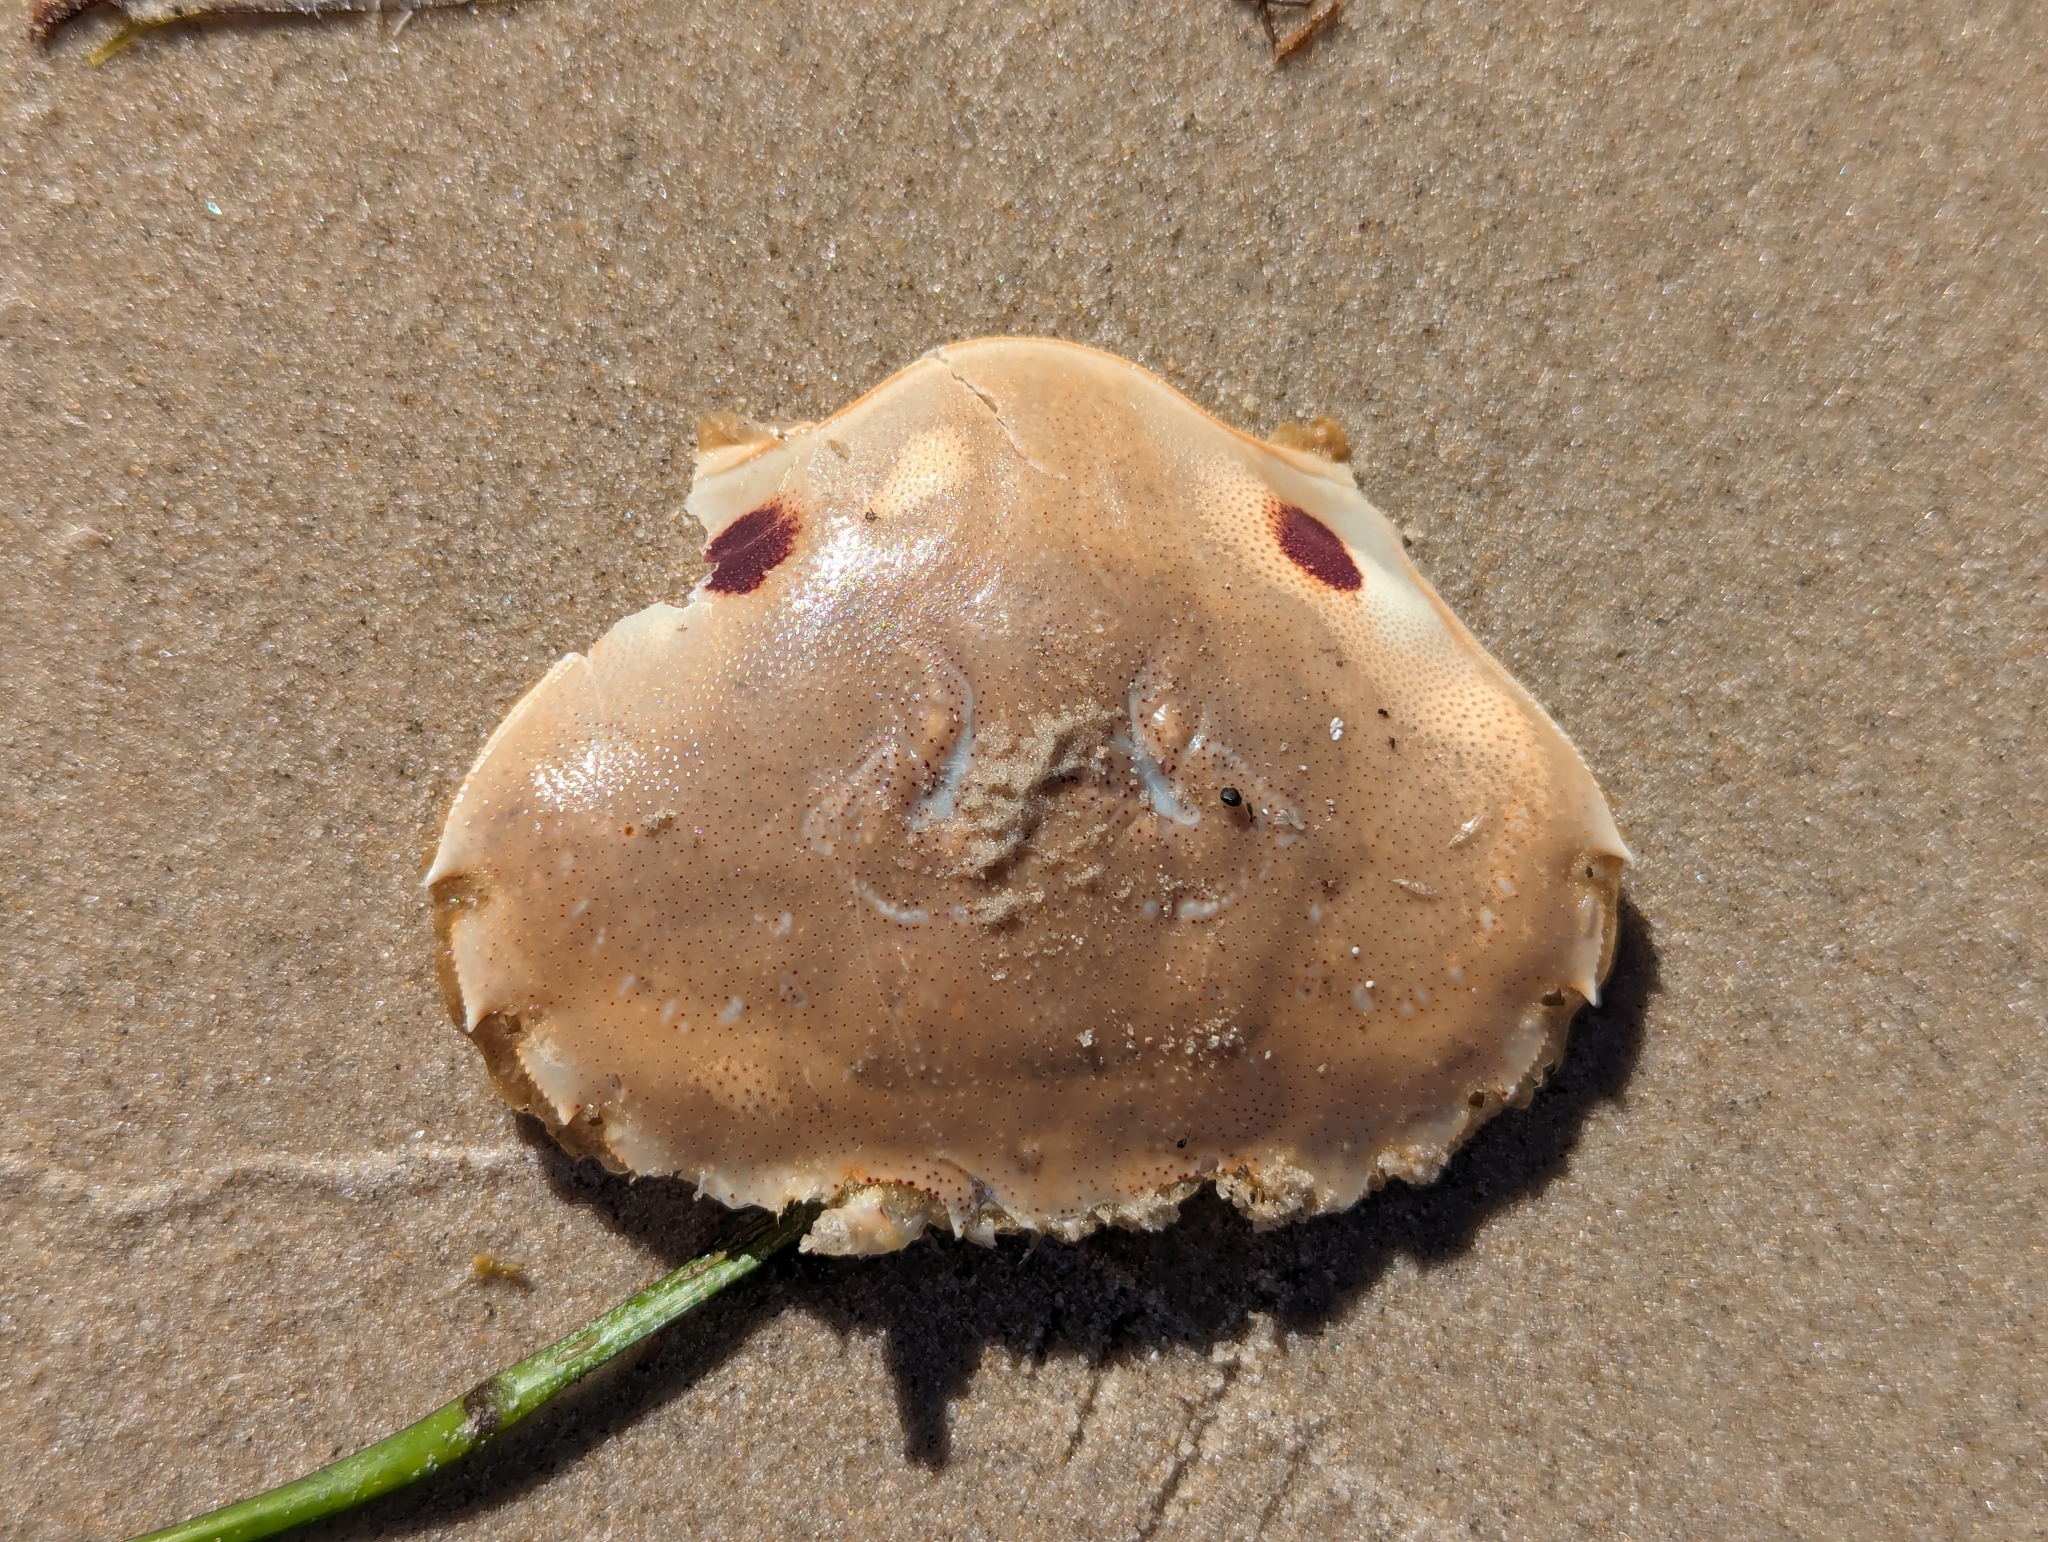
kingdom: Animalia
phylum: Arthropoda
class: Malacostraca
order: Decapoda
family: Ovalipidae
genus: Ovalipes
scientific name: Ovalipes australiensis
